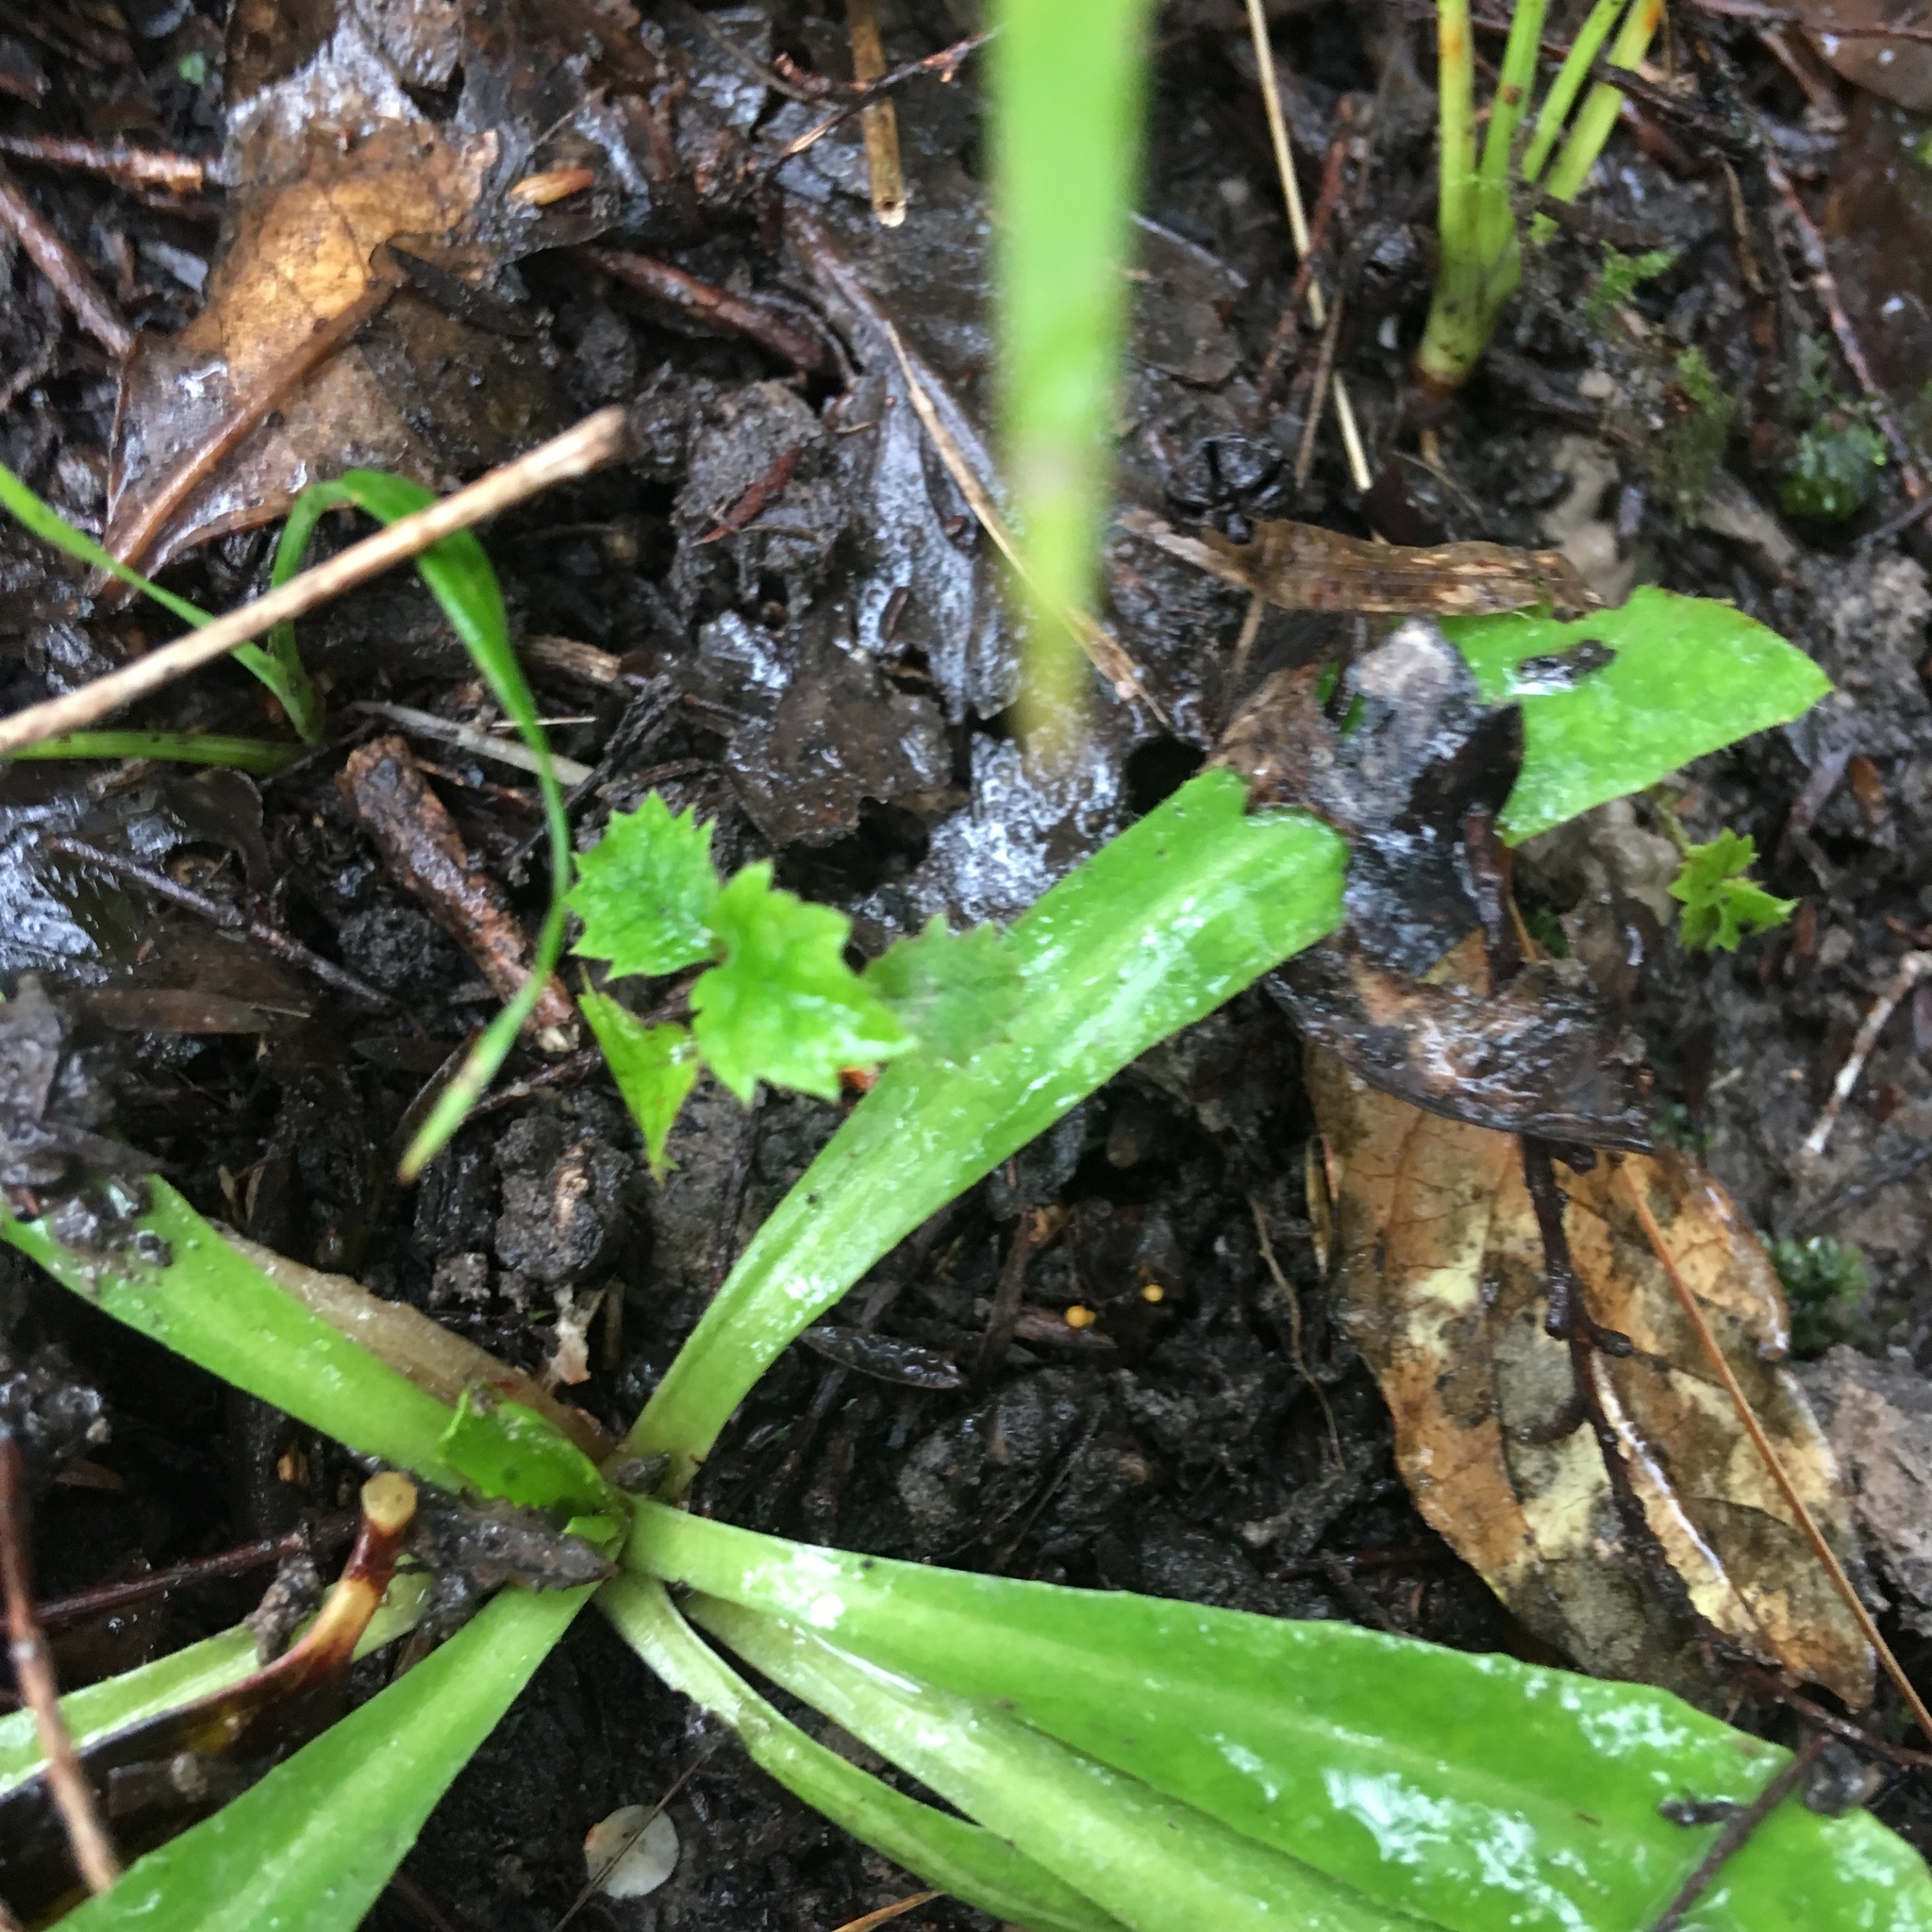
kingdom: Plantae
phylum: Tracheophyta
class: Magnoliopsida
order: Asterales
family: Rousseaceae
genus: Carpodetus
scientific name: Carpodetus serratus
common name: White mapau
